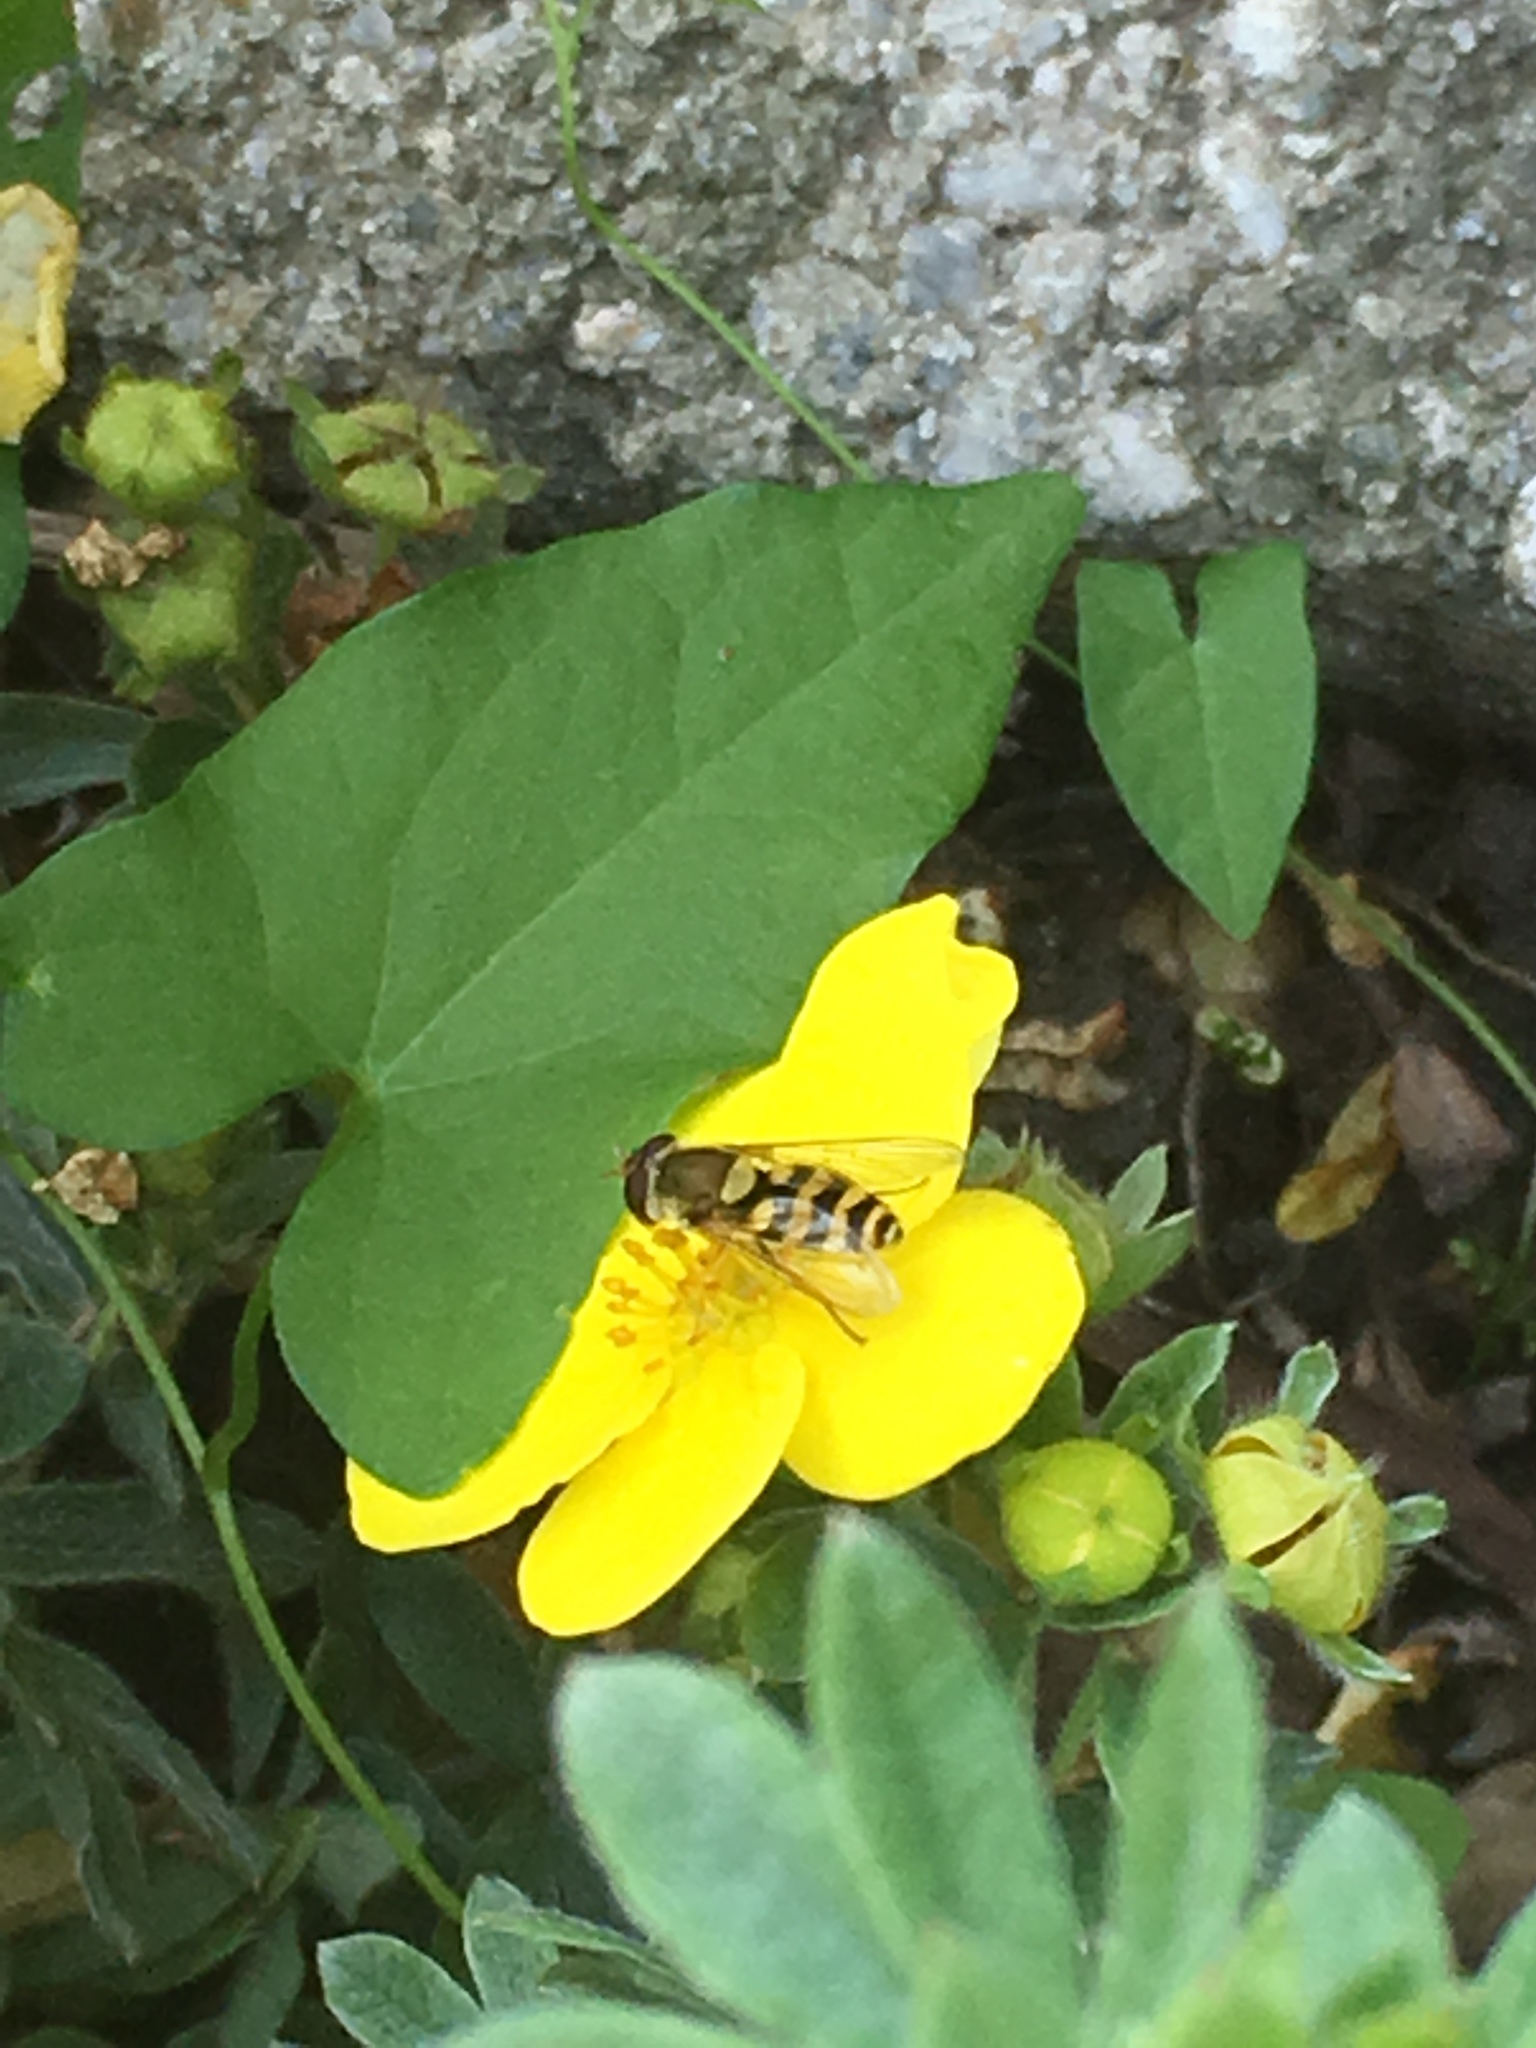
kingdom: Animalia
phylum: Arthropoda
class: Insecta
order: Diptera
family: Syrphidae
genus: Syrphus
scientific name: Syrphus
